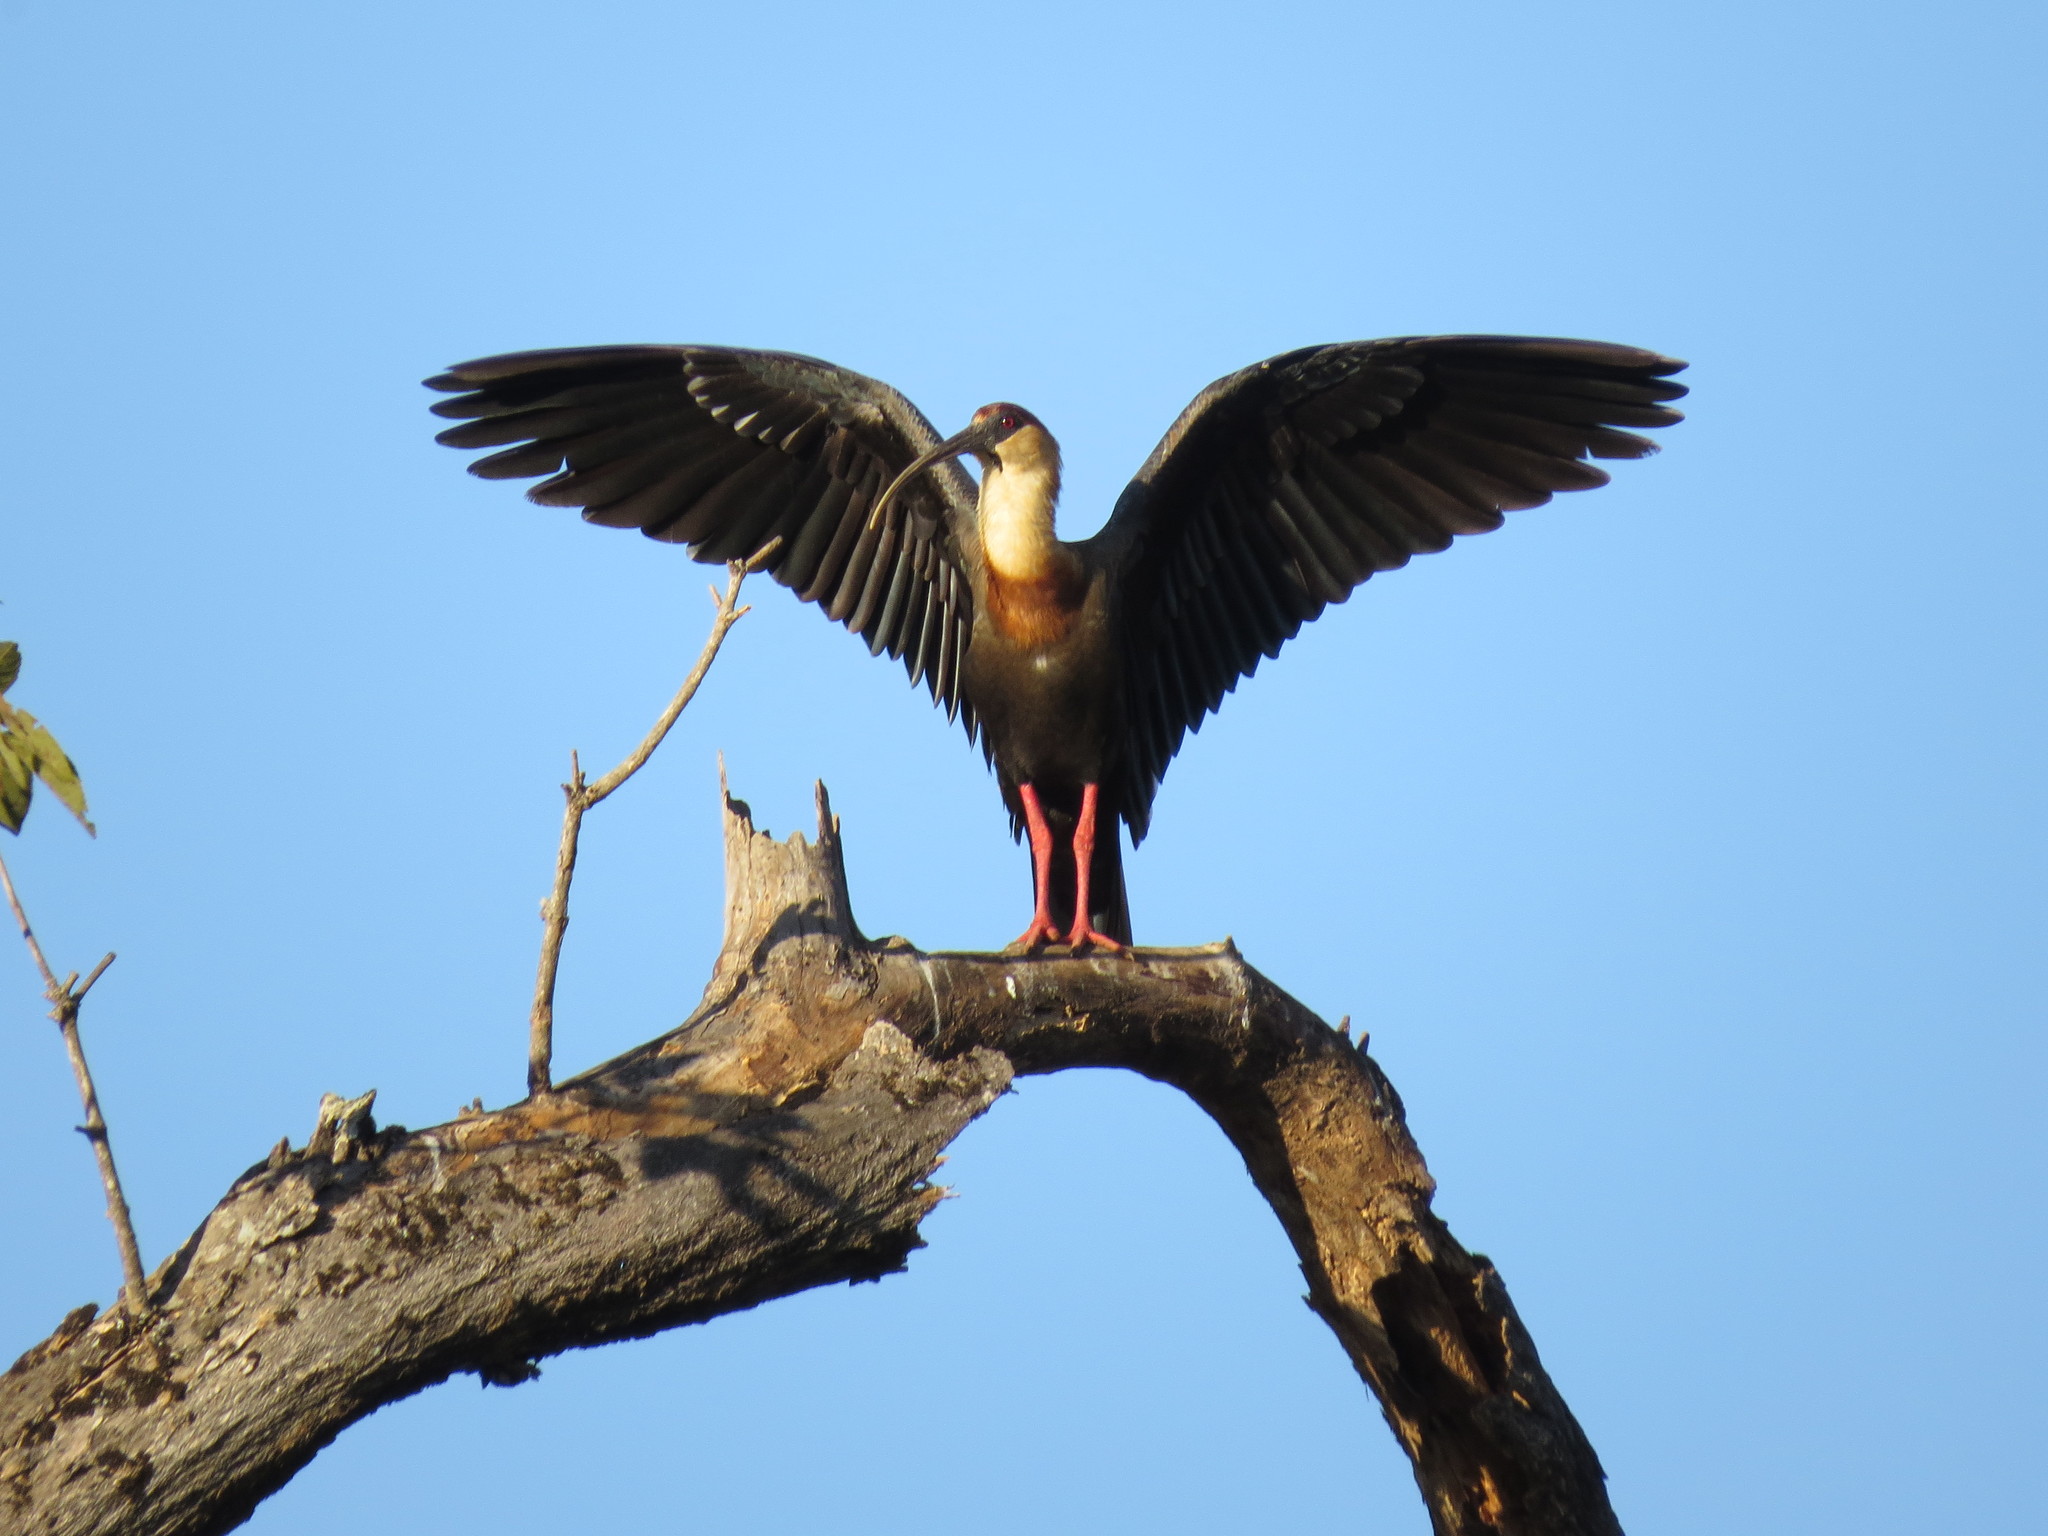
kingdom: Animalia
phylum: Chordata
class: Aves
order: Pelecaniformes
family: Threskiornithidae
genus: Theristicus
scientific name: Theristicus caudatus
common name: Buff-necked ibis
